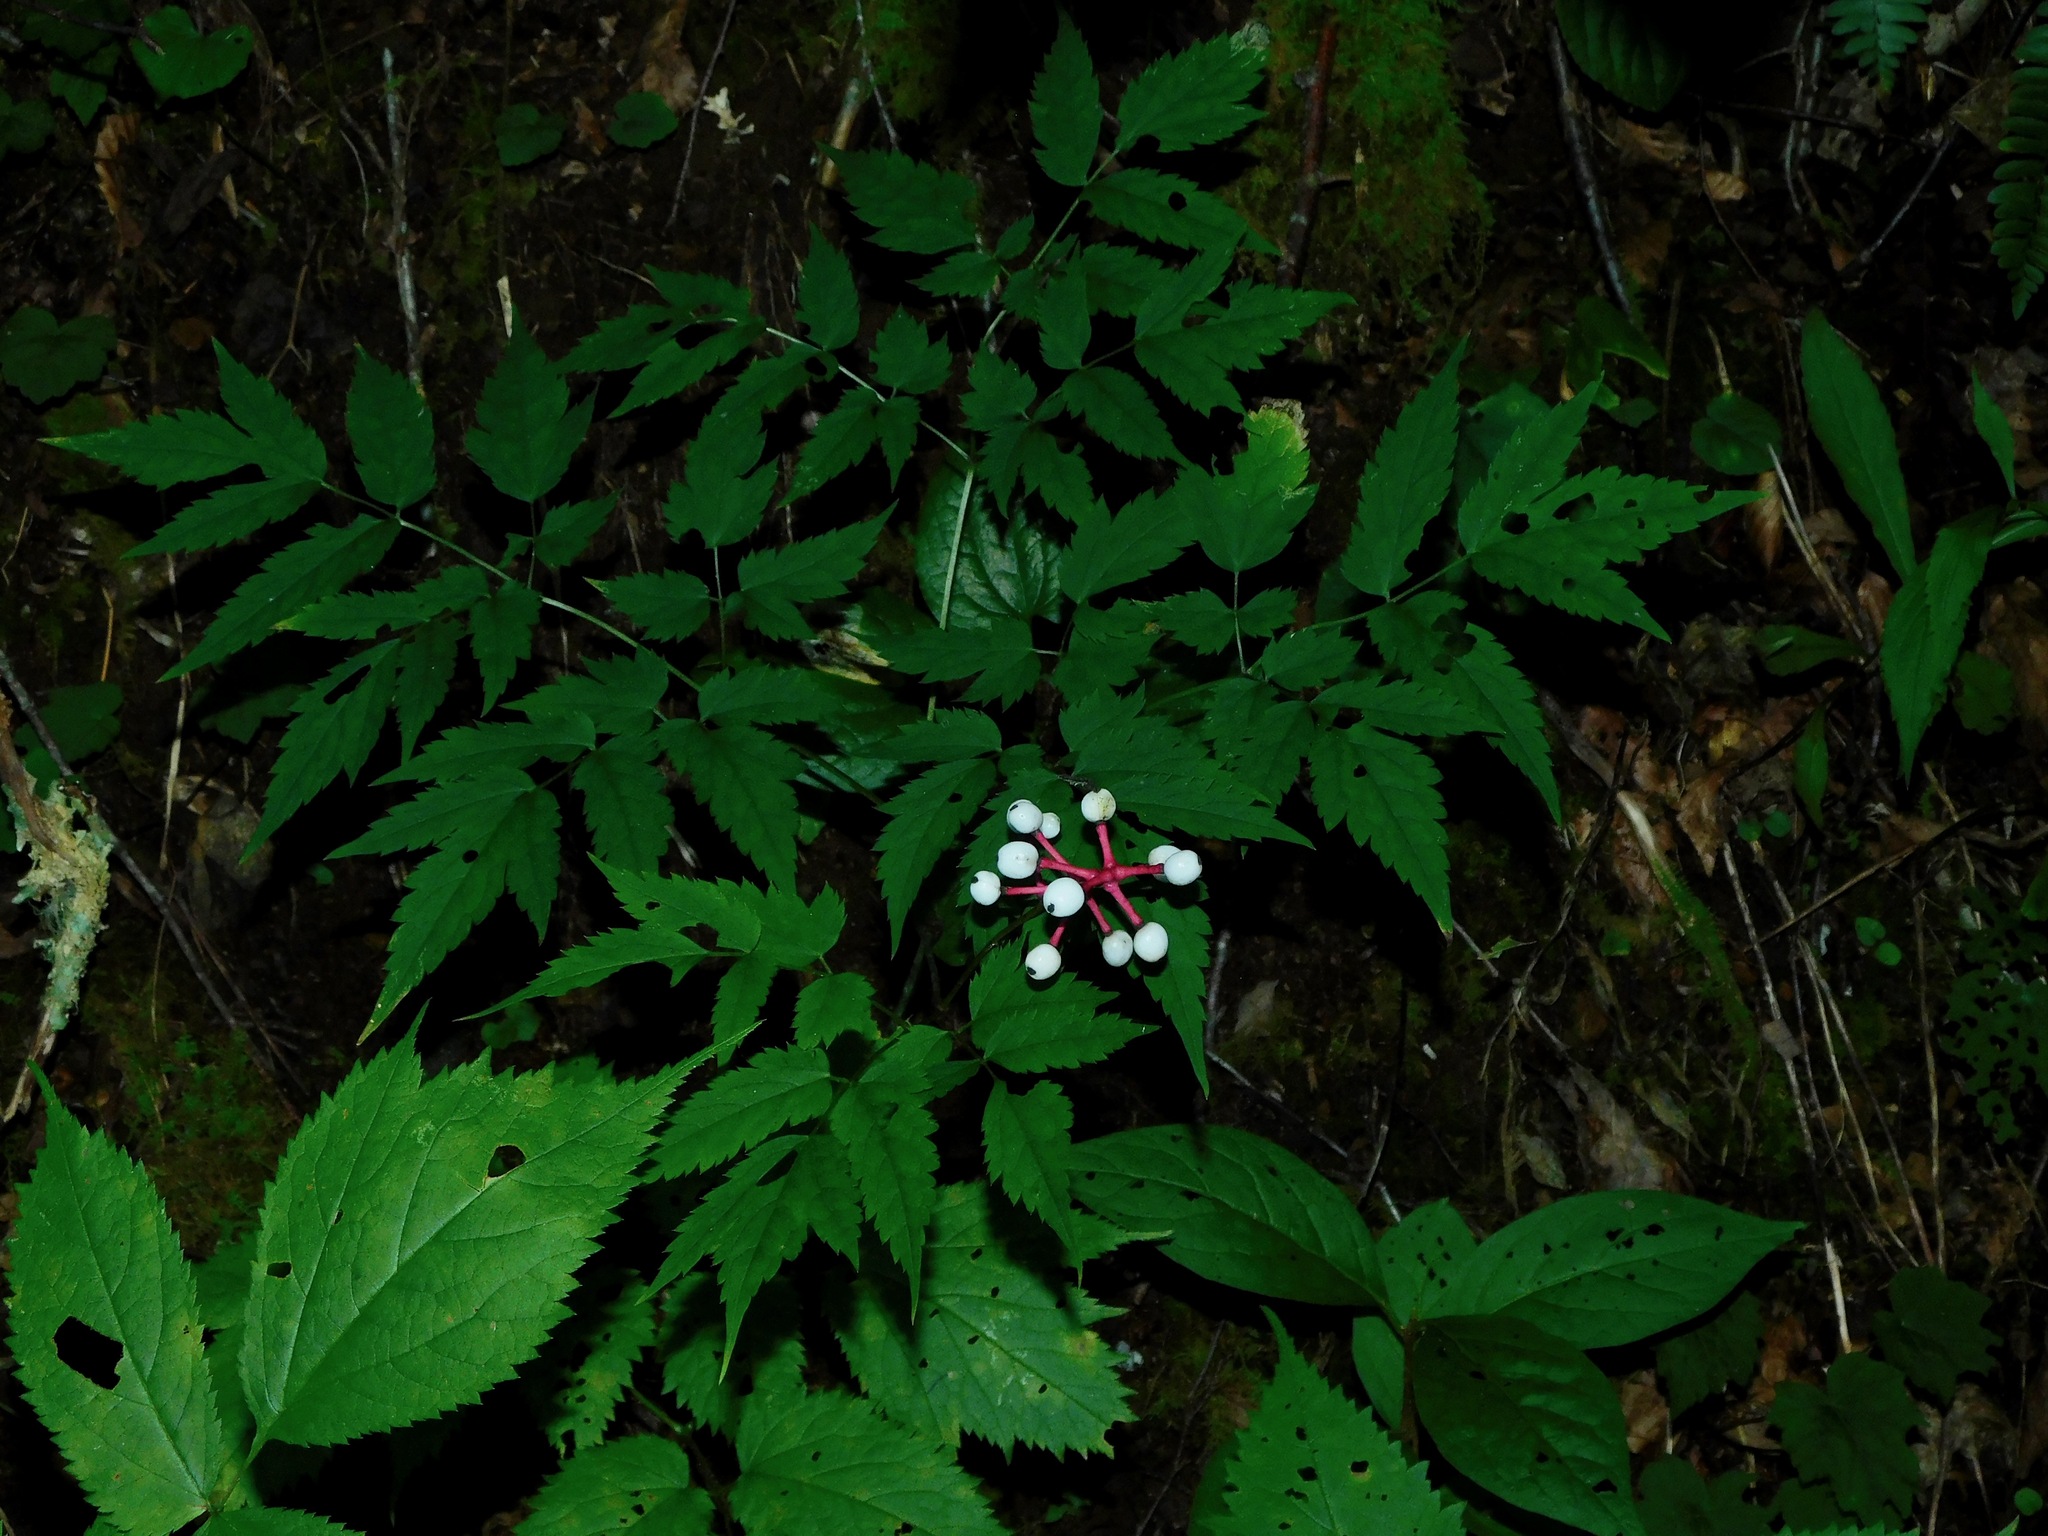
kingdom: Plantae
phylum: Tracheophyta
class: Magnoliopsida
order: Ranunculales
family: Ranunculaceae
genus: Actaea
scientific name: Actaea pachypoda
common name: Doll's-eyes
